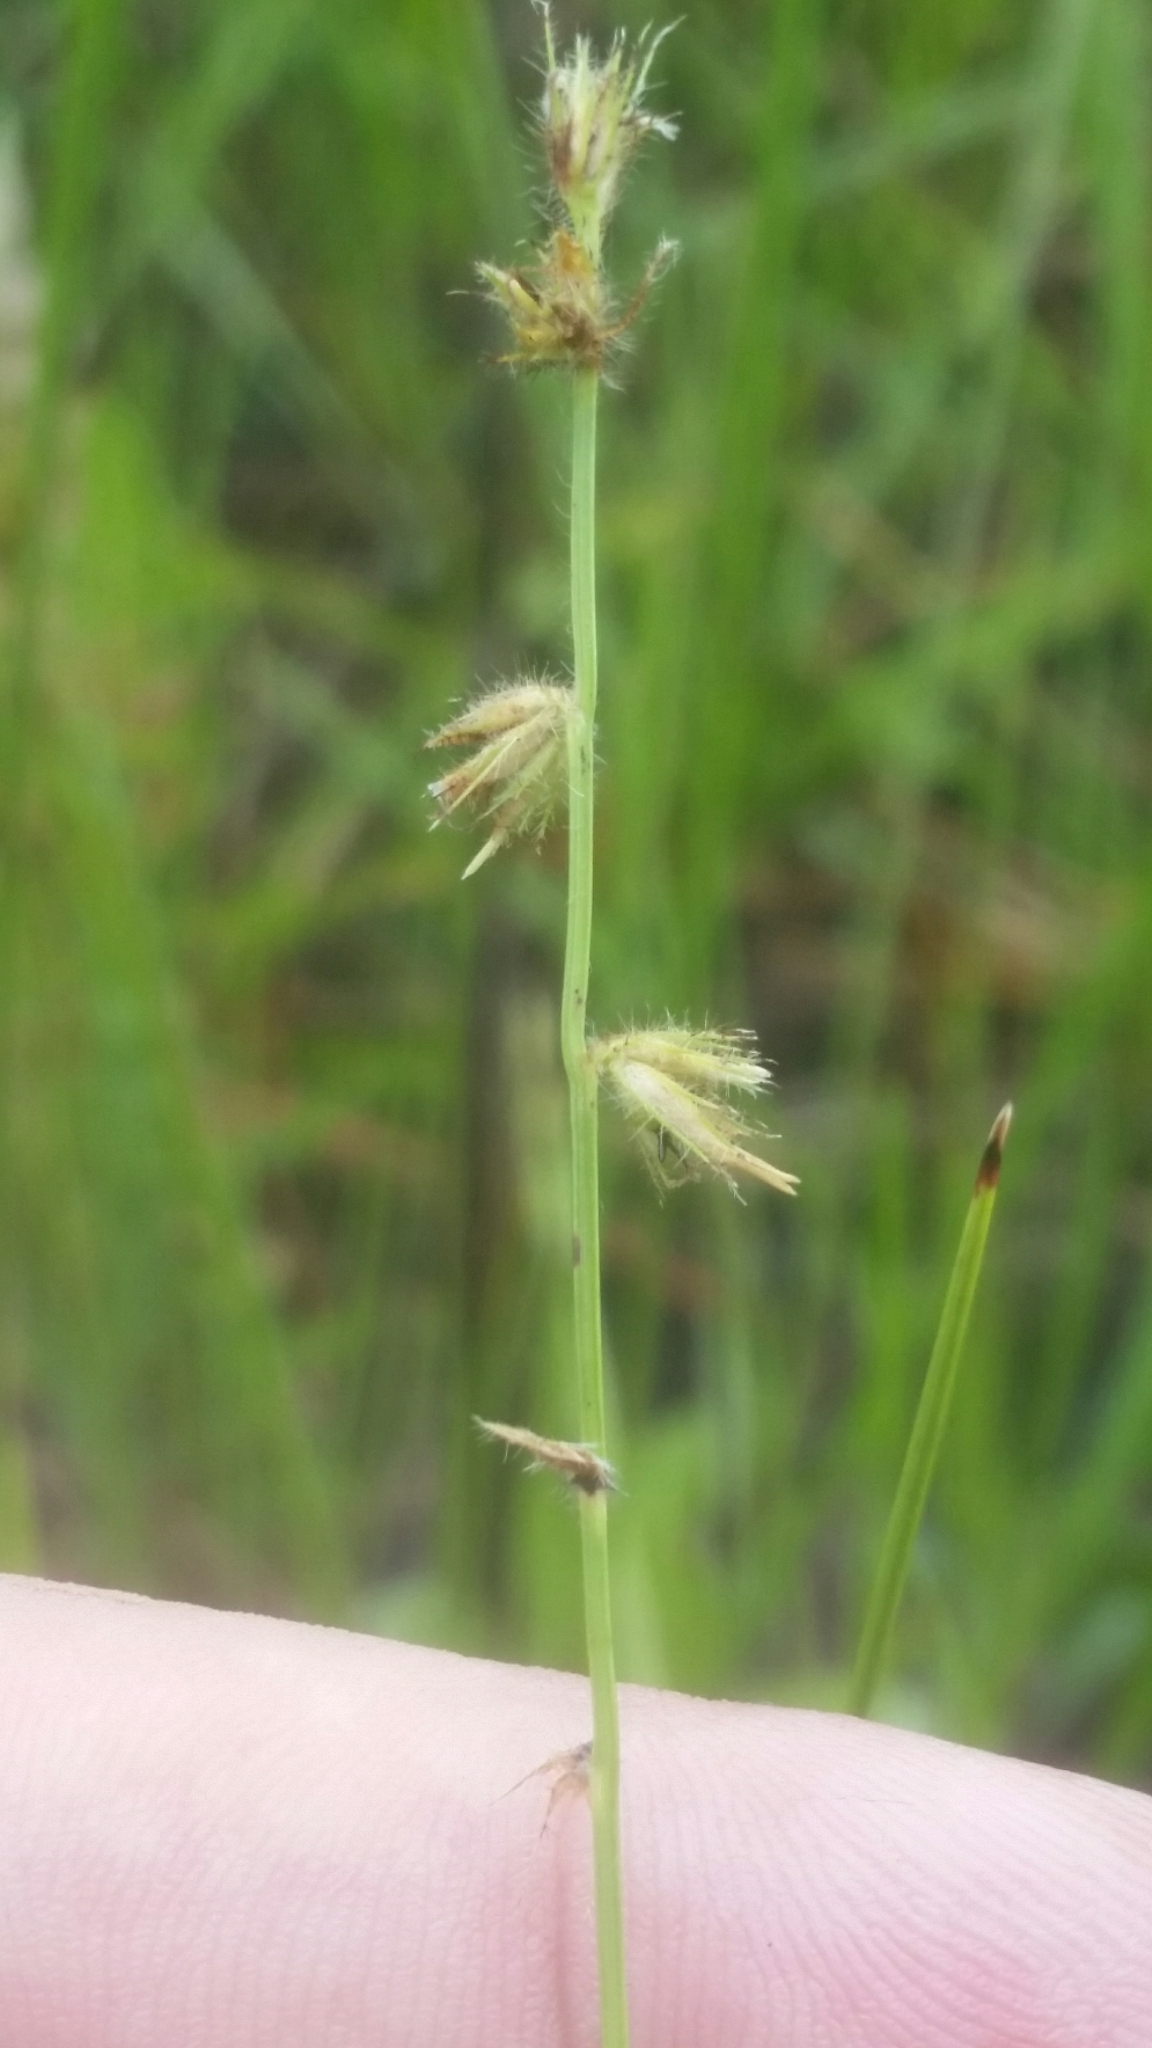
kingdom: Plantae
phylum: Tracheophyta
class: Liliopsida
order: Poales
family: Cyperaceae
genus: Scleria
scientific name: Scleria distans
